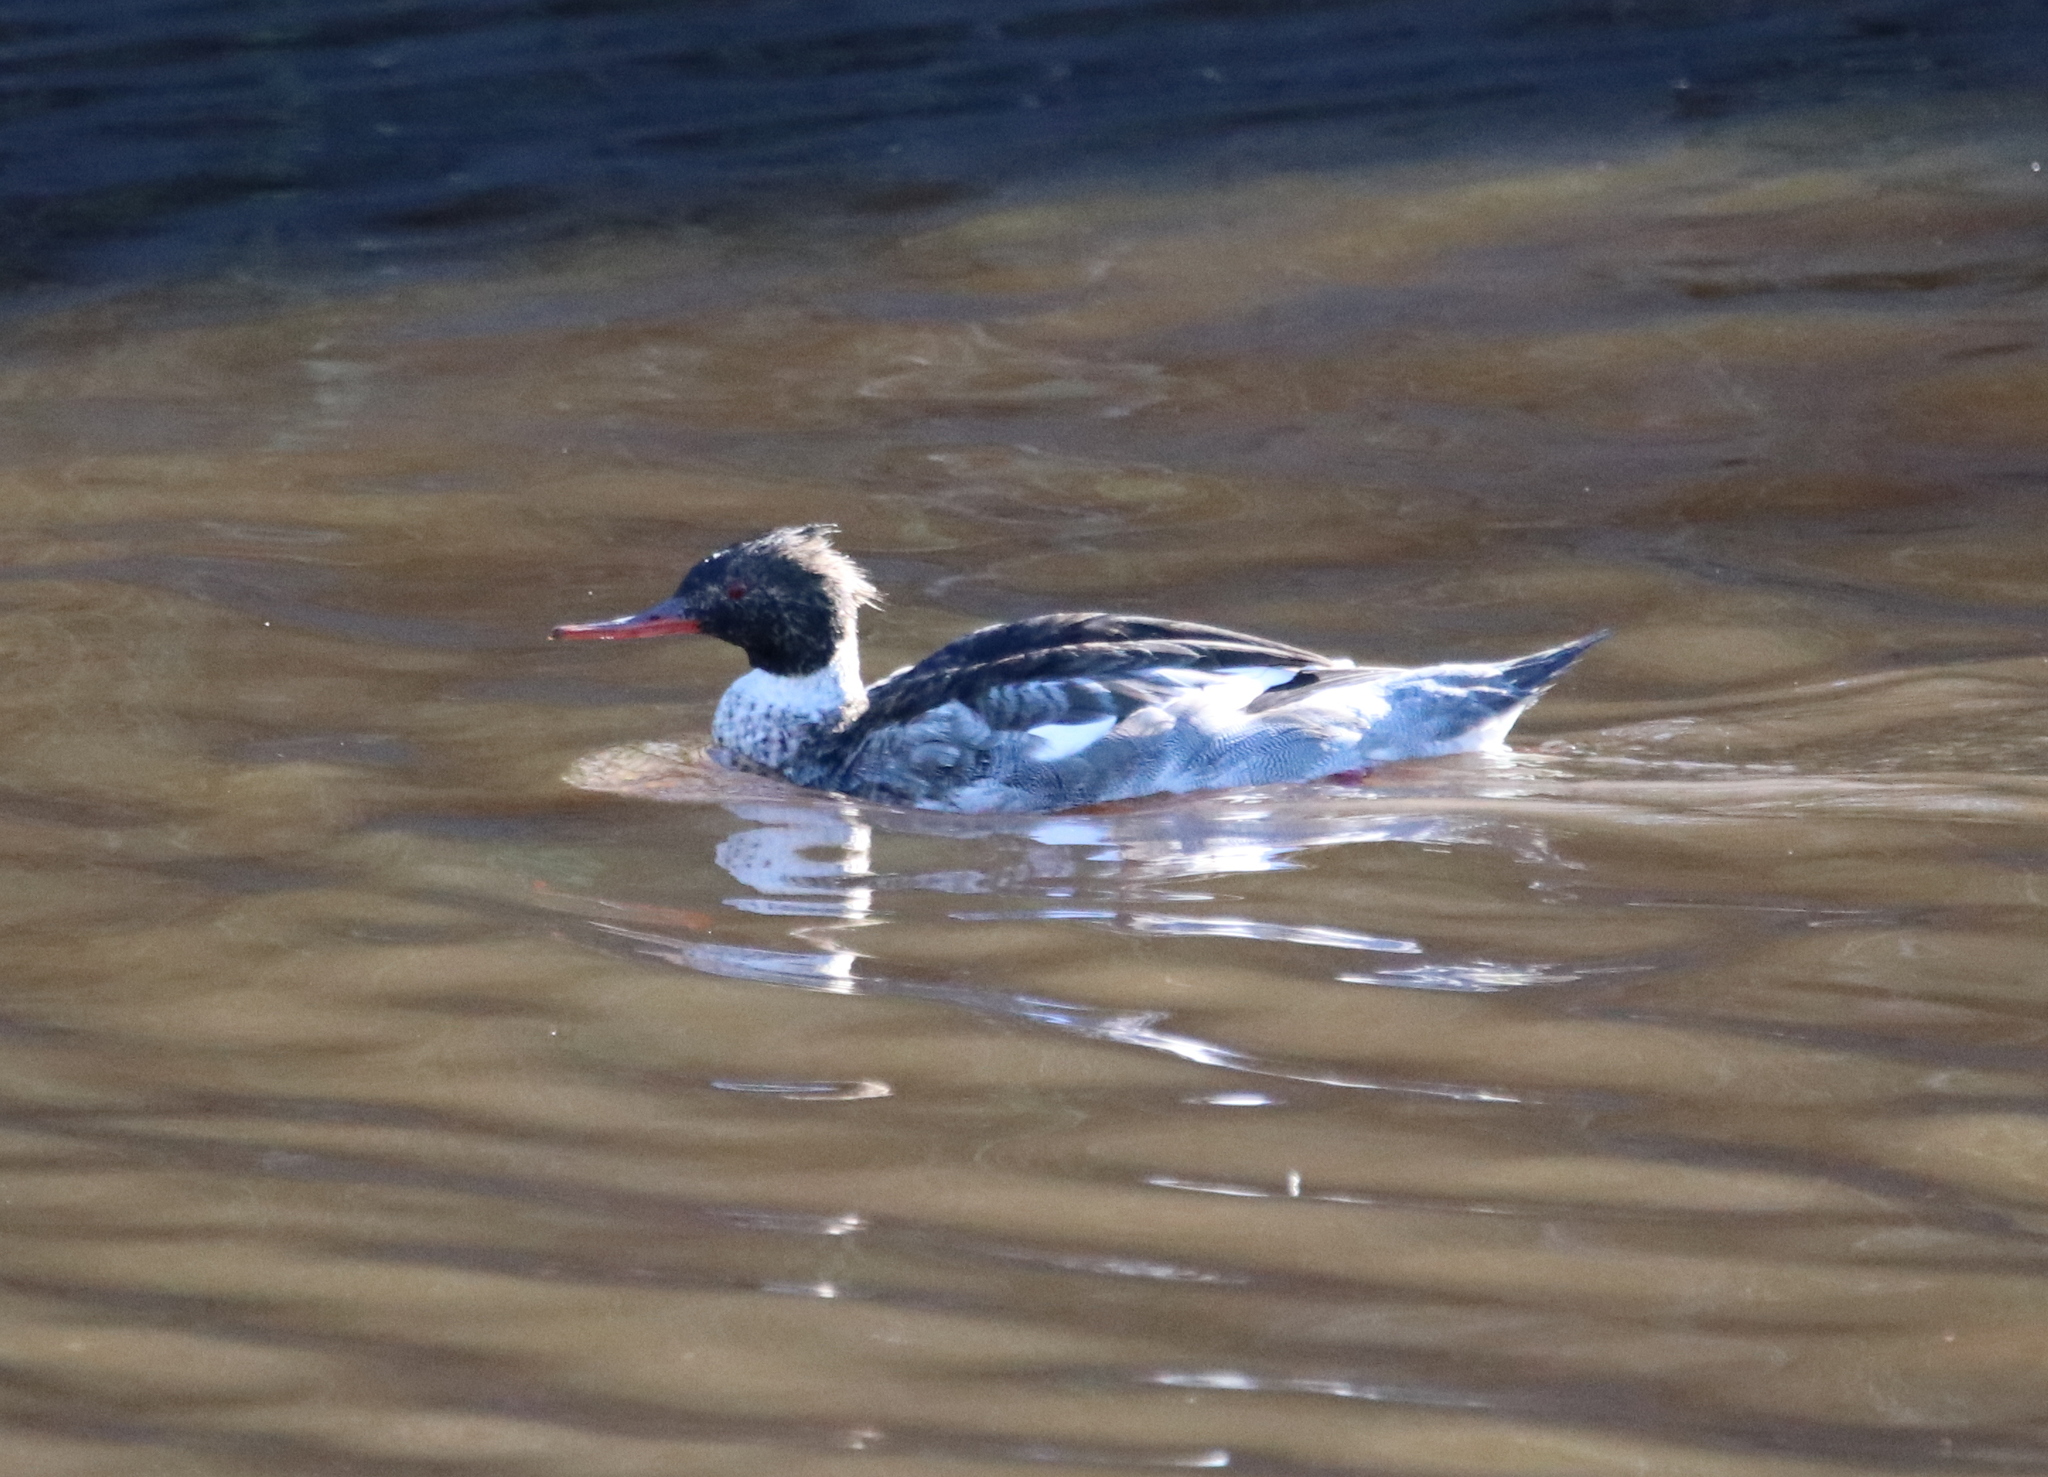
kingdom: Animalia
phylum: Chordata
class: Aves
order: Anseriformes
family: Anatidae
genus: Mergus
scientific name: Mergus serrator
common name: Red-breasted merganser
